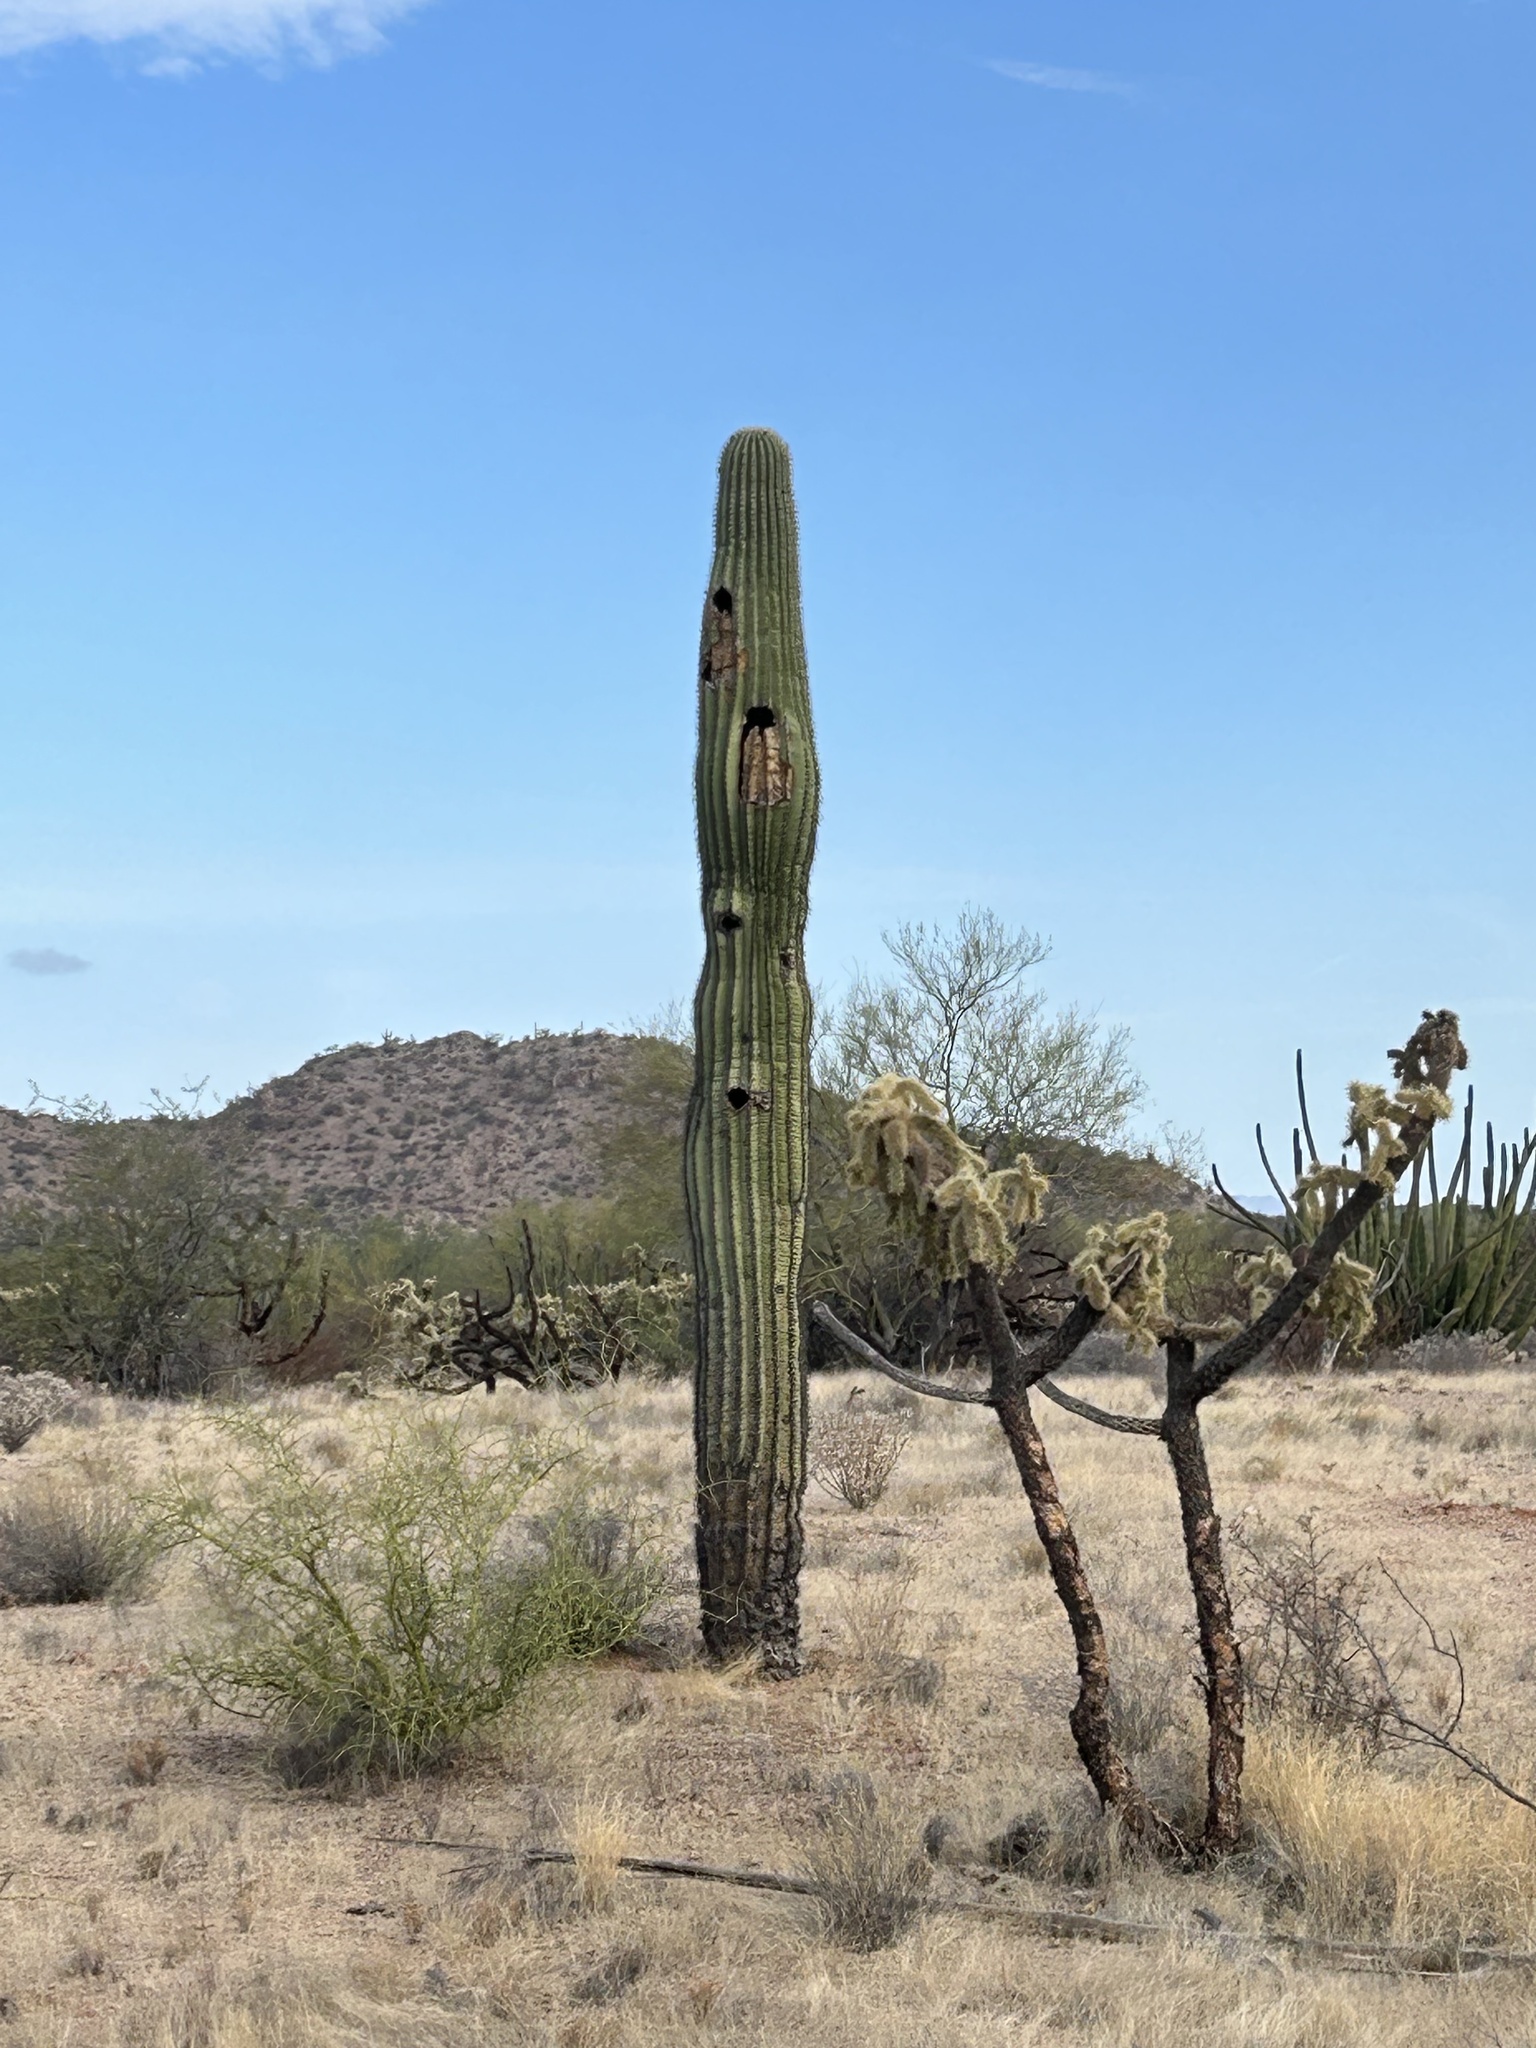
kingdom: Plantae
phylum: Tracheophyta
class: Magnoliopsida
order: Caryophyllales
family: Cactaceae
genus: Carnegiea
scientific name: Carnegiea gigantea
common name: Saguaro
